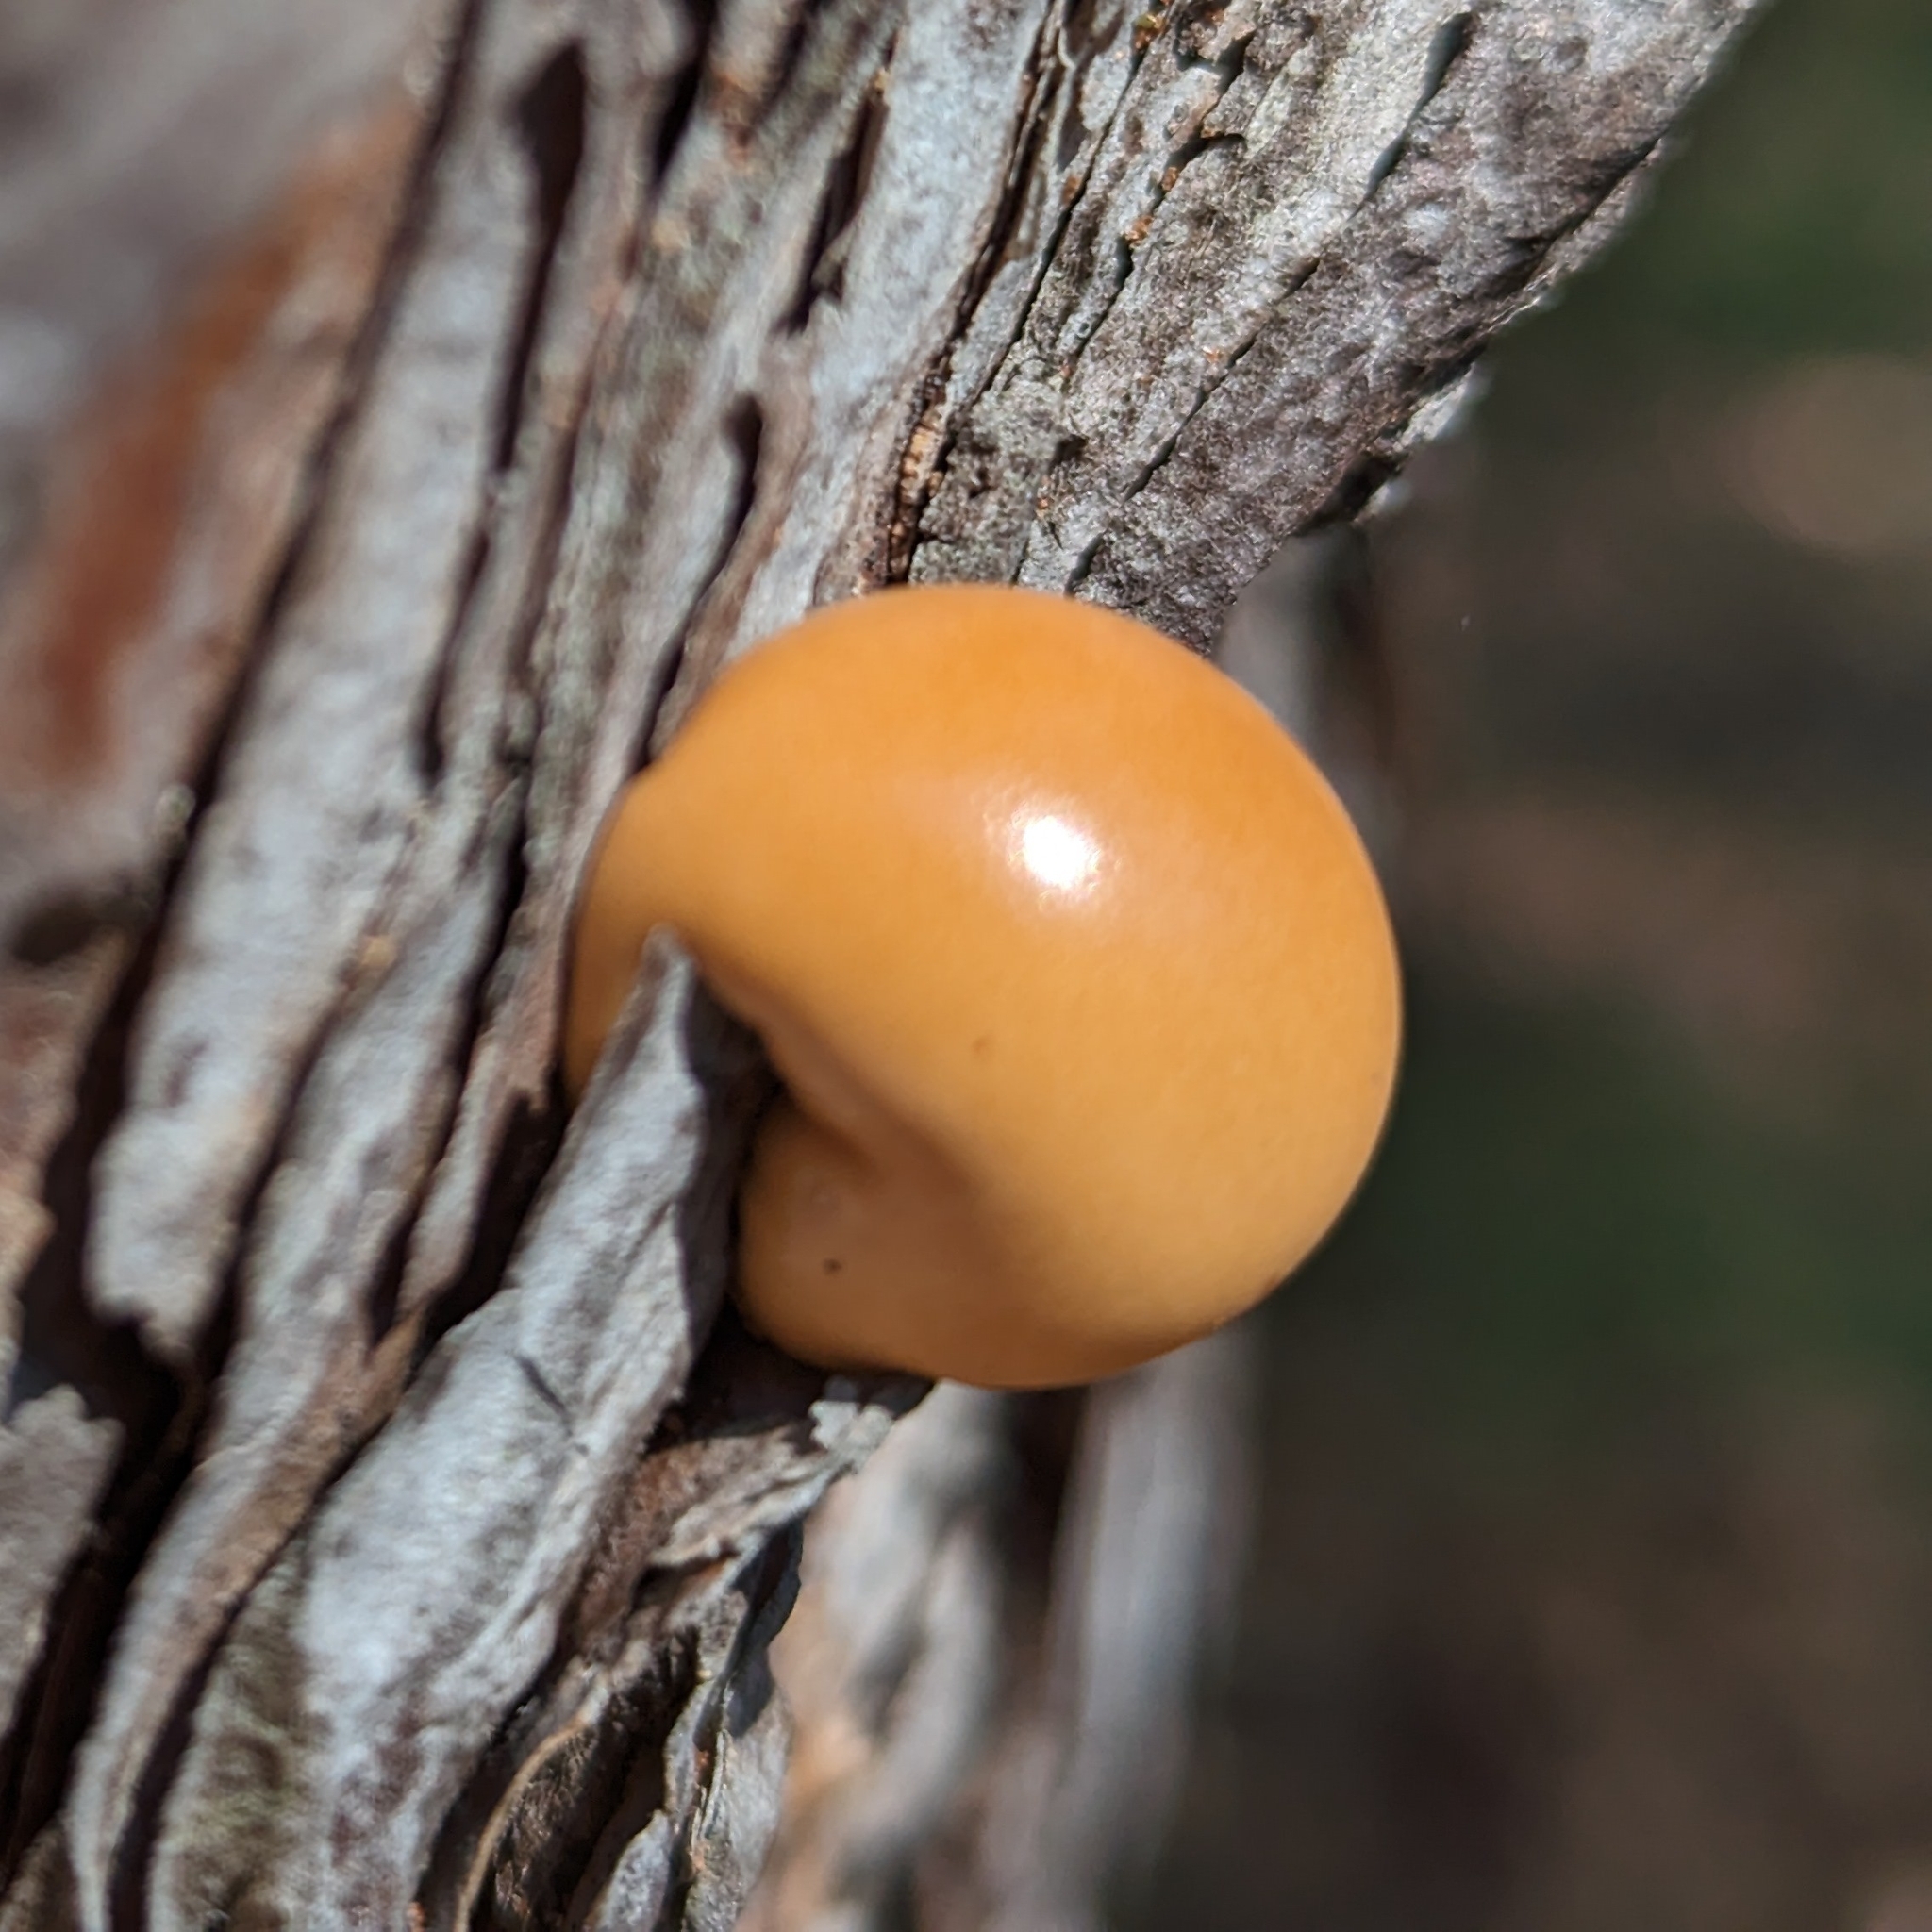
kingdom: Fungi
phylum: Basidiomycota
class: Agaricomycetes
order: Polyporales
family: Polyporaceae
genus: Cryptoporus
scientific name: Cryptoporus volvatus
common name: Veiled polypore
